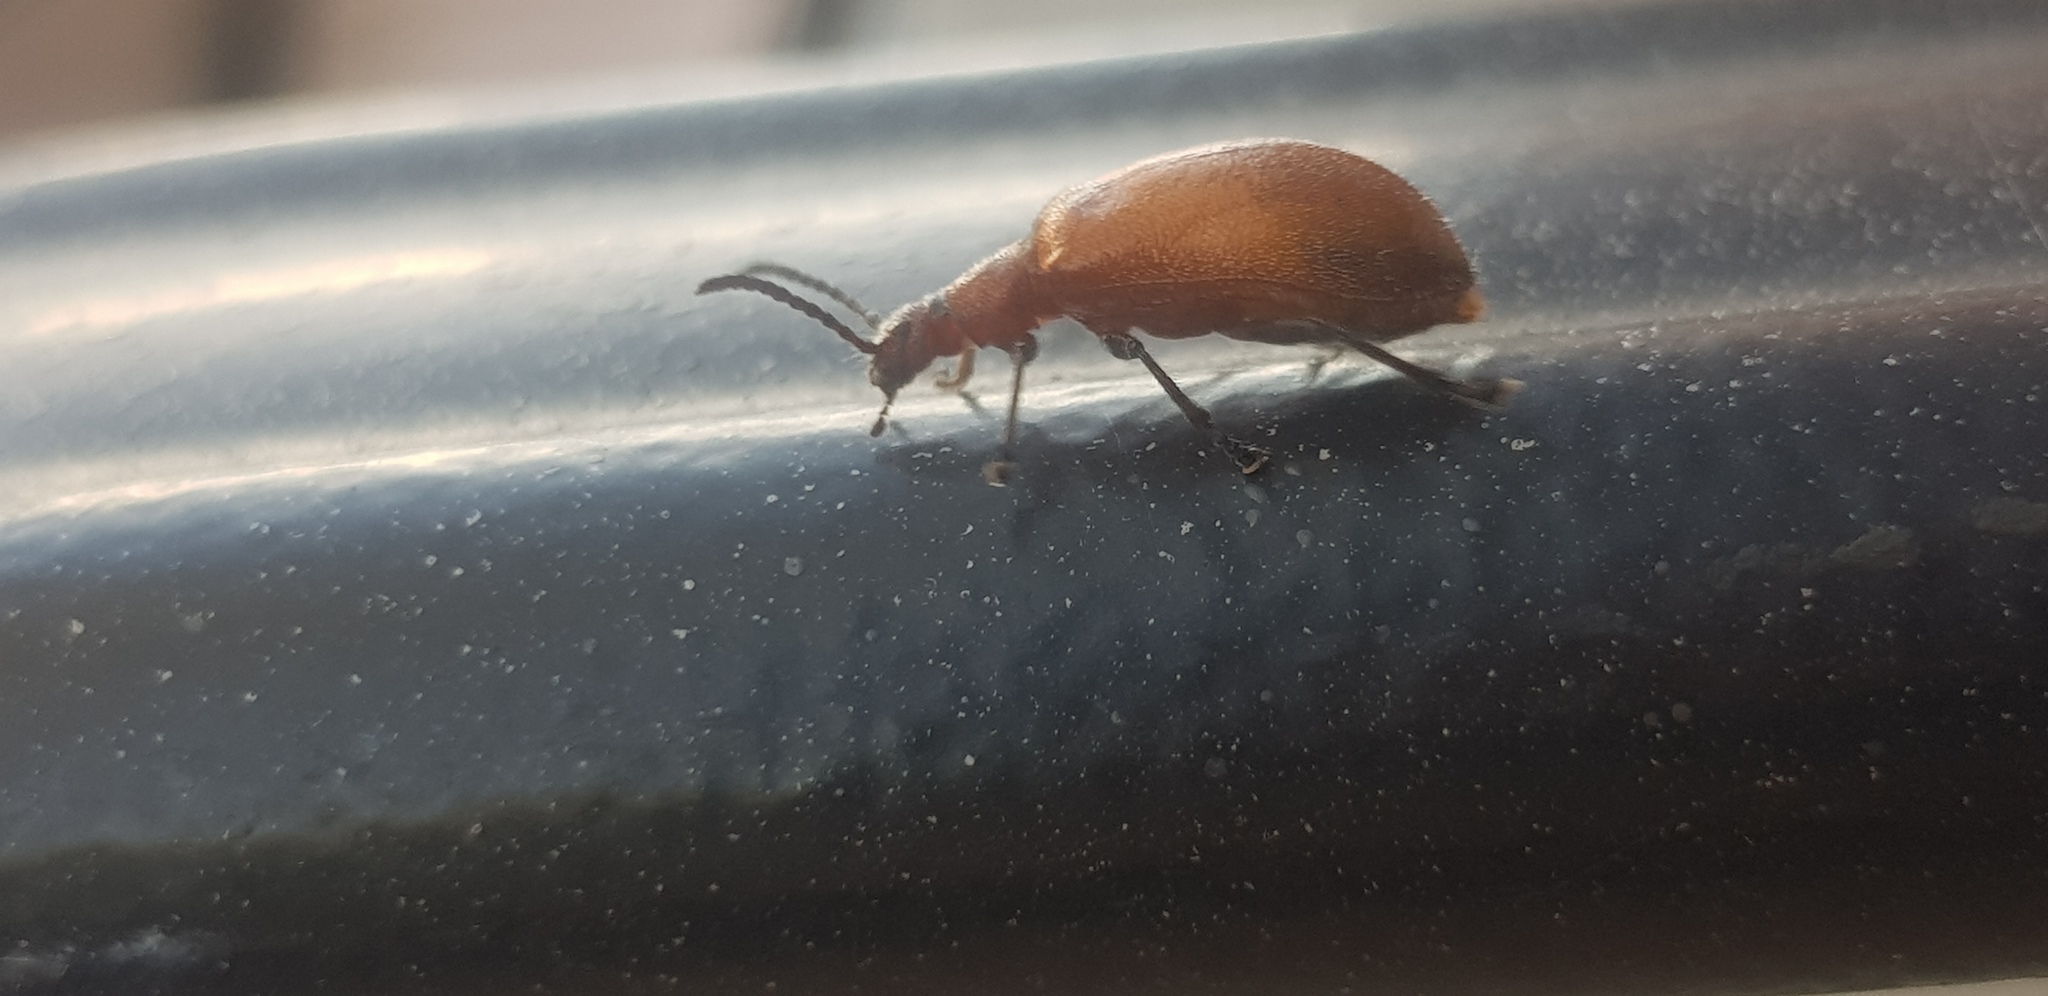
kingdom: Animalia
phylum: Arthropoda
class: Insecta
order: Coleoptera
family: Tenebrionidae
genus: Ecnolagria
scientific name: Ecnolagria
